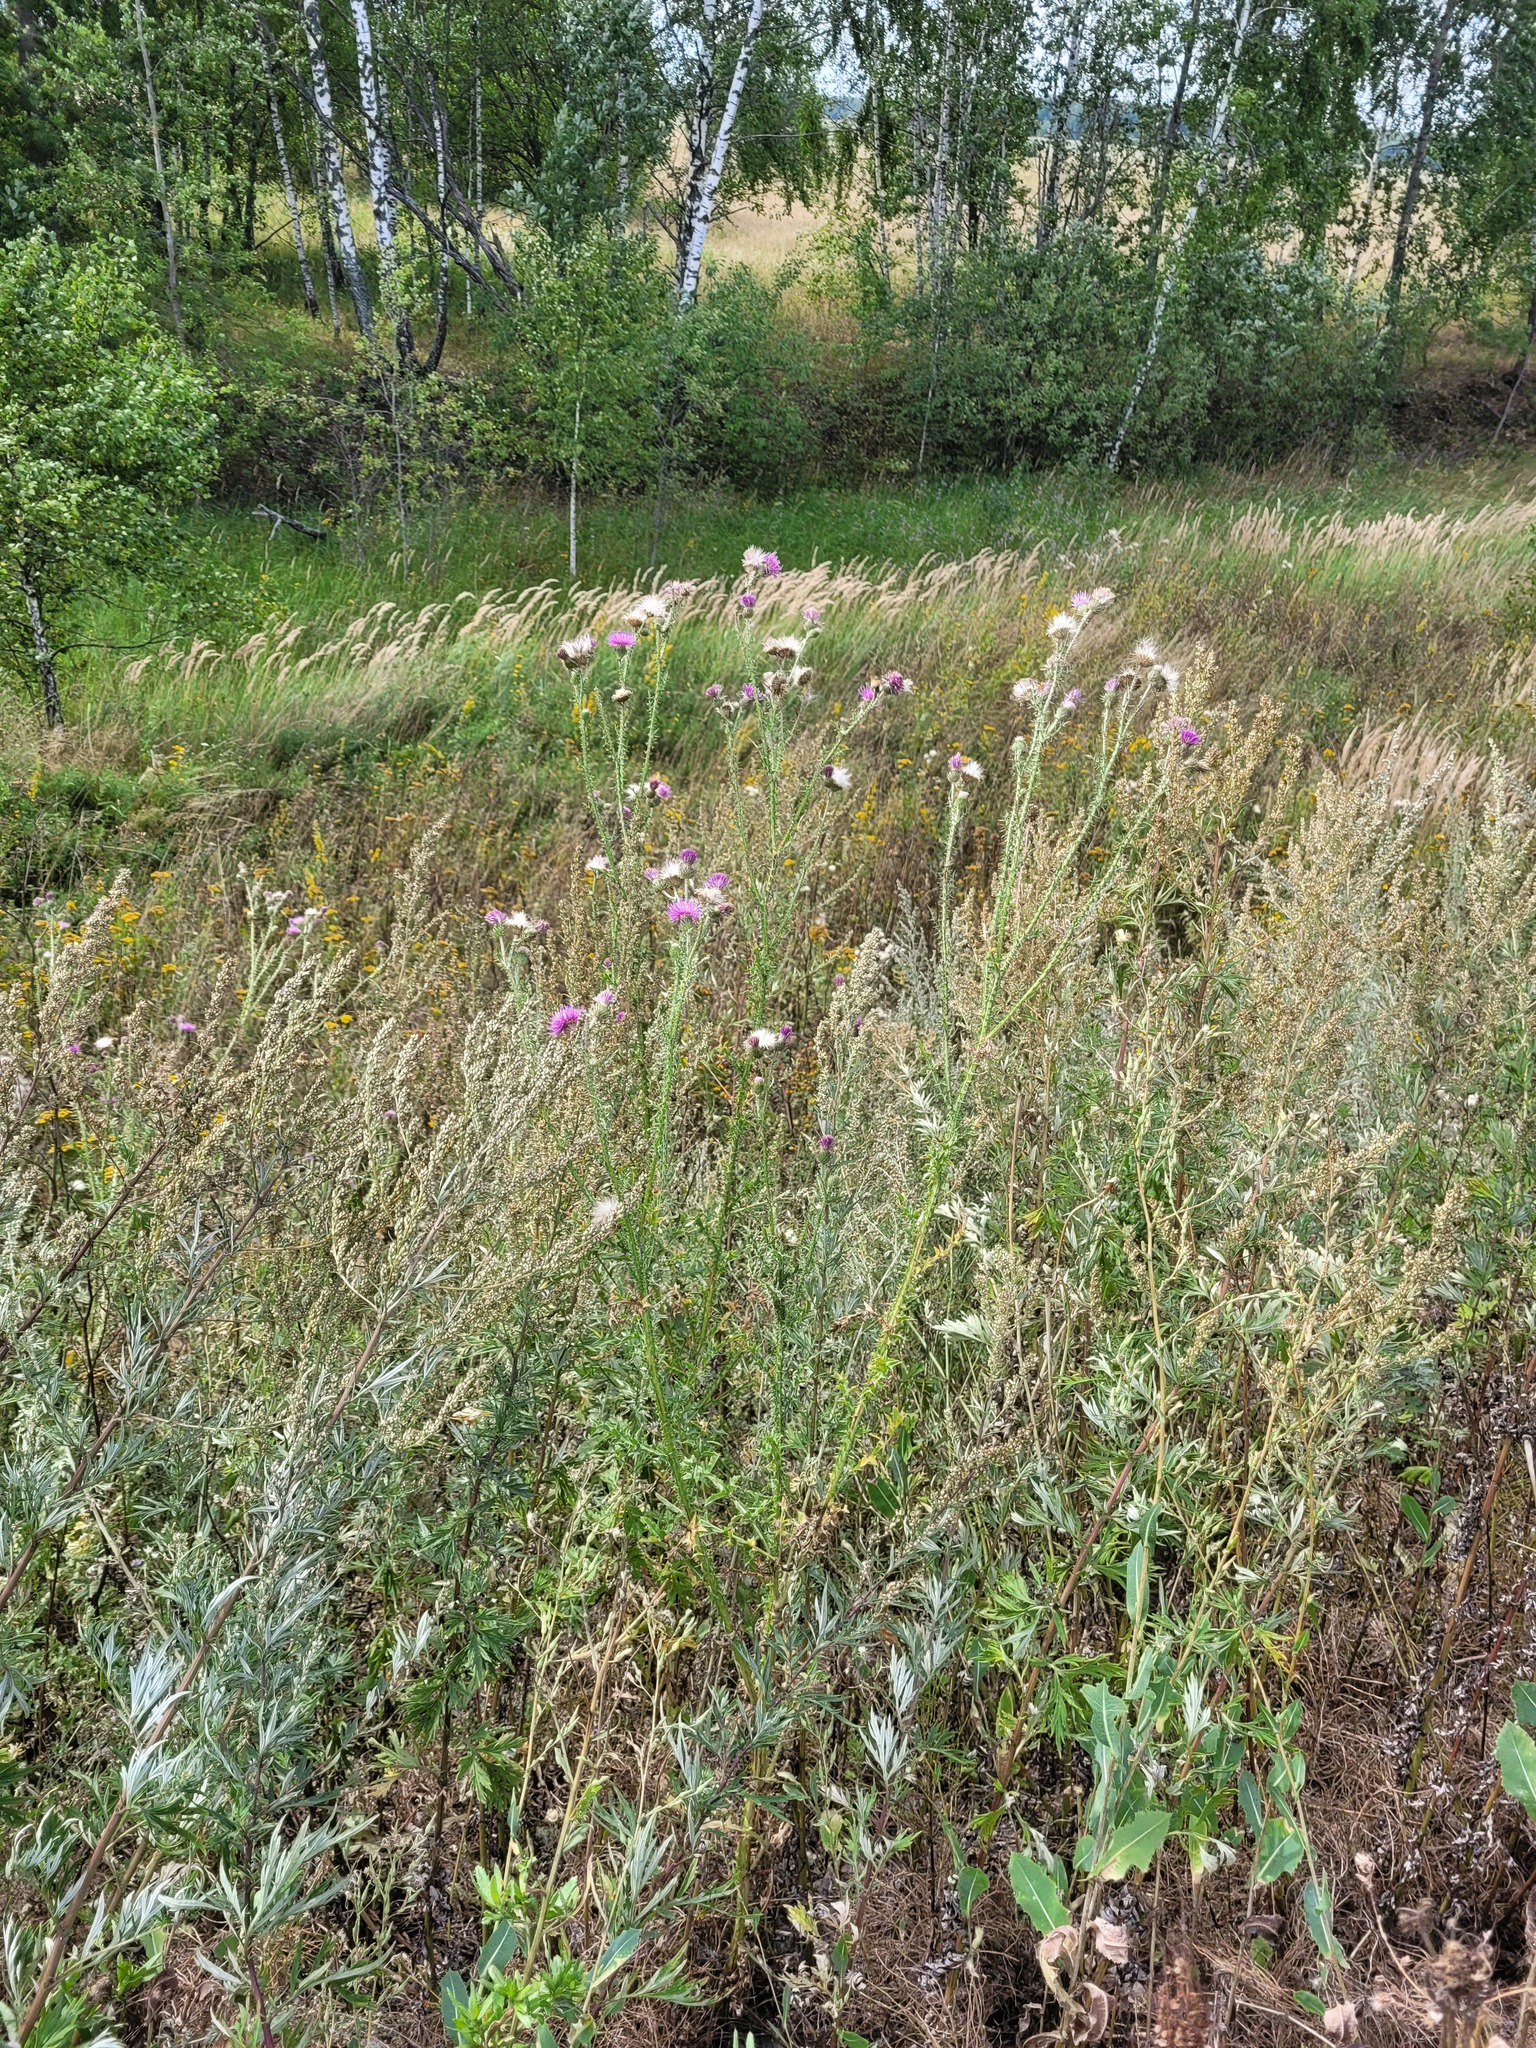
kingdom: Plantae
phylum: Tracheophyta
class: Magnoliopsida
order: Asterales
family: Asteraceae
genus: Carduus
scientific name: Carduus acanthoides
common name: Plumeless thistle
